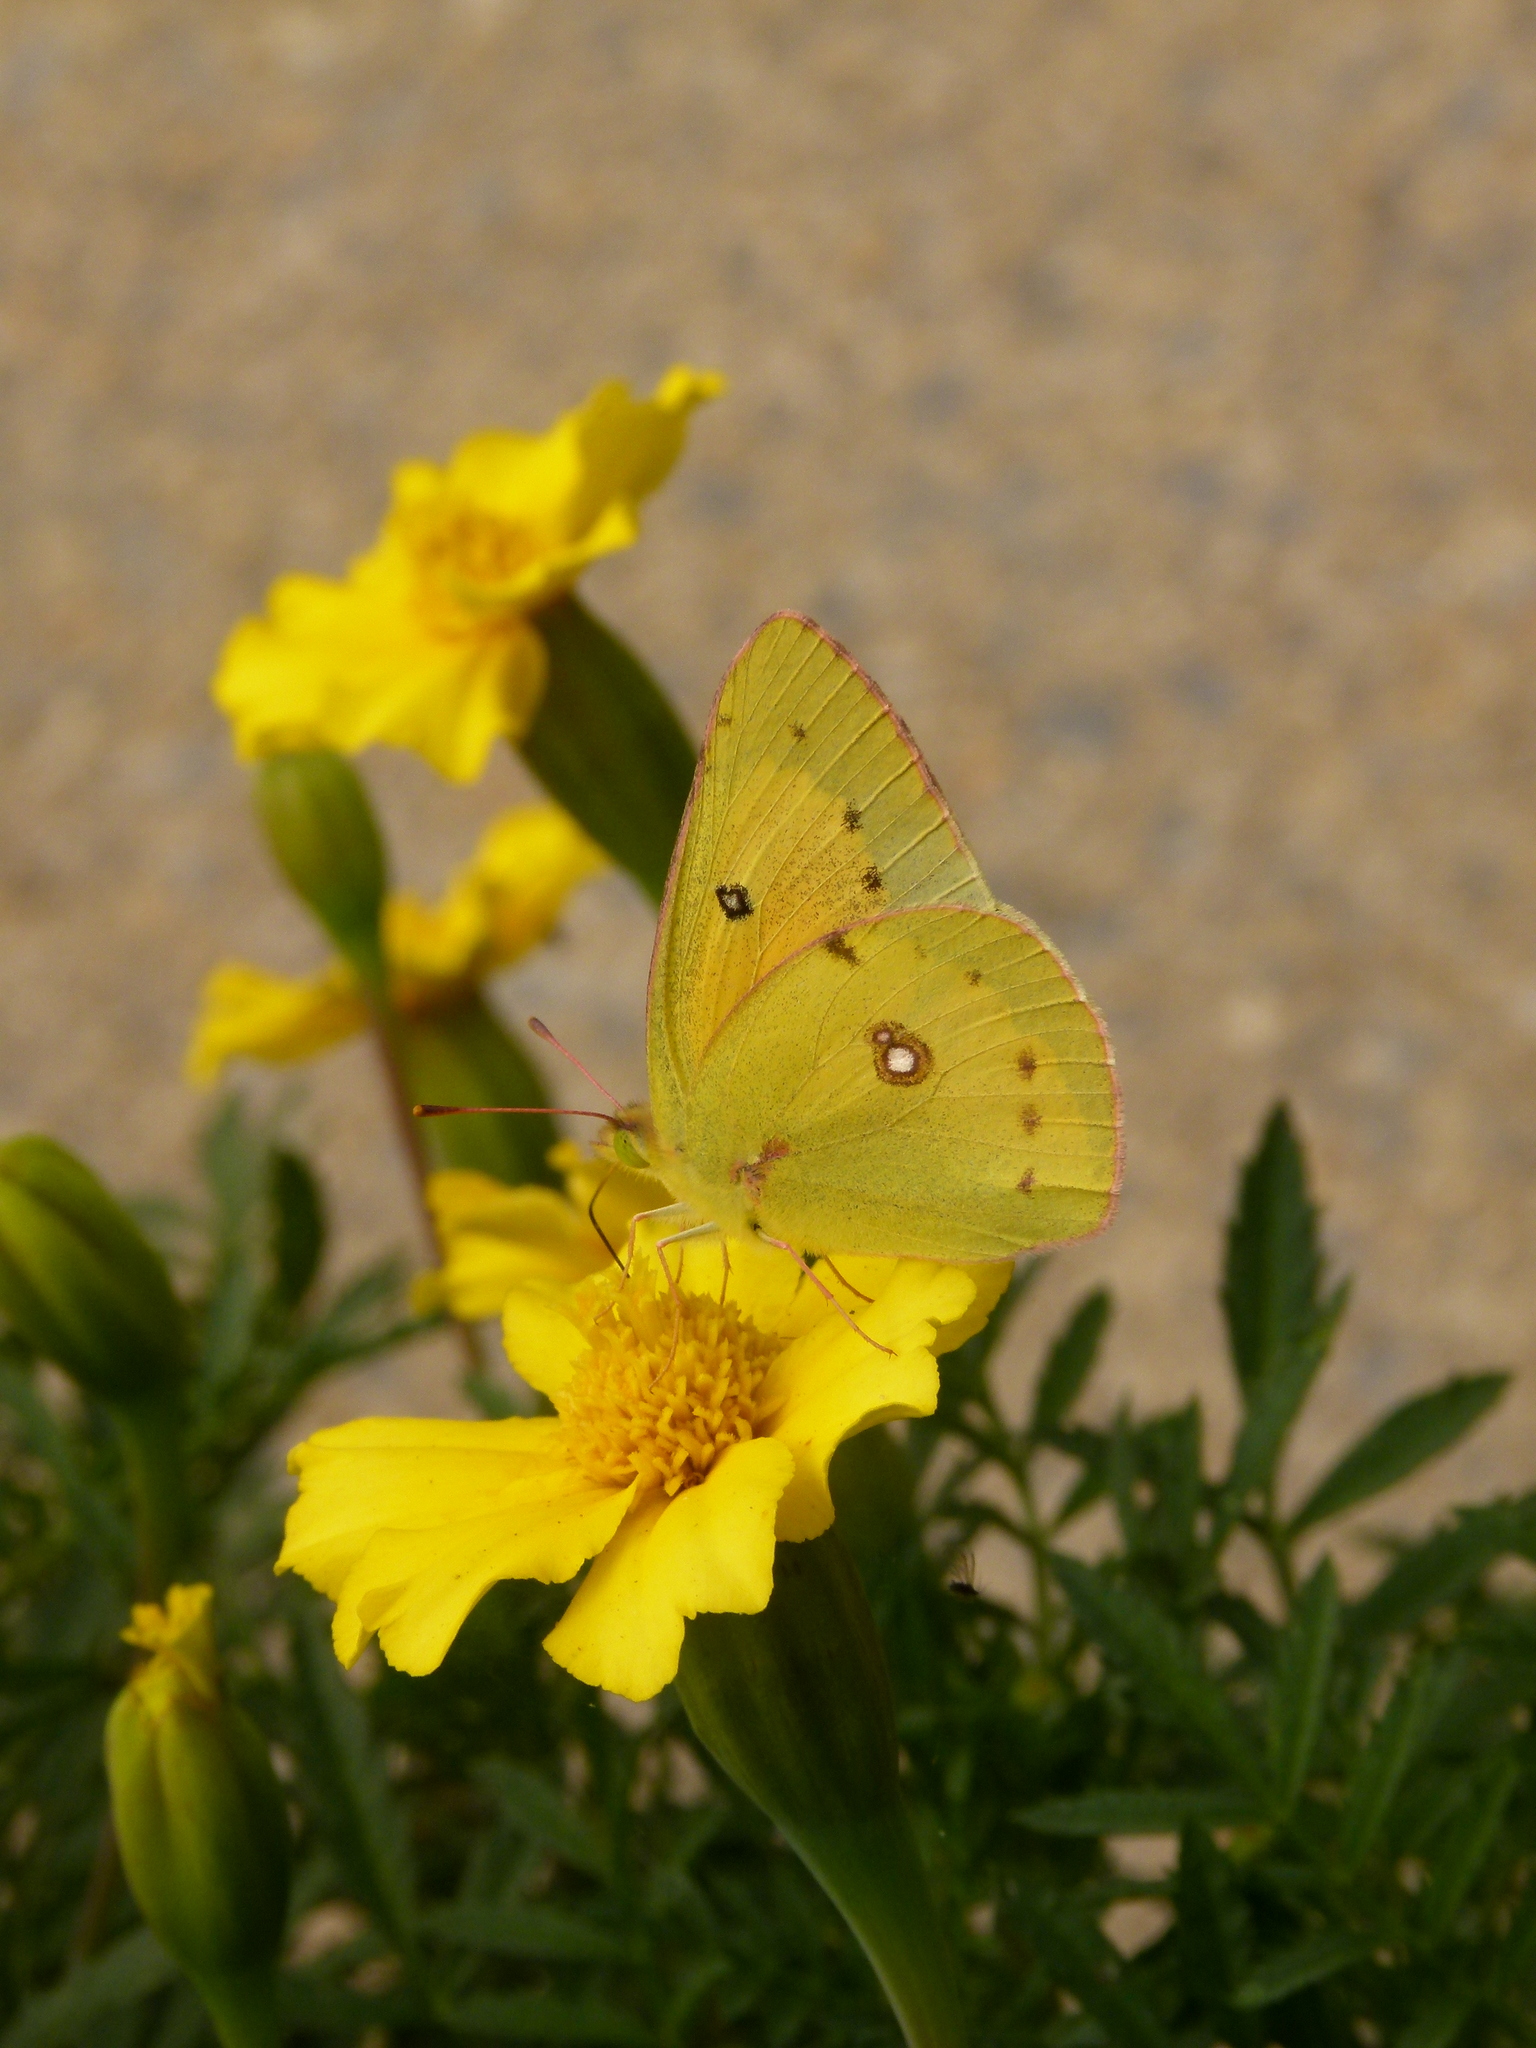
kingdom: Animalia
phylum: Arthropoda
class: Insecta
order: Lepidoptera
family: Pieridae
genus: Colias
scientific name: Colias eurytheme
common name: Alfalfa butterfly
